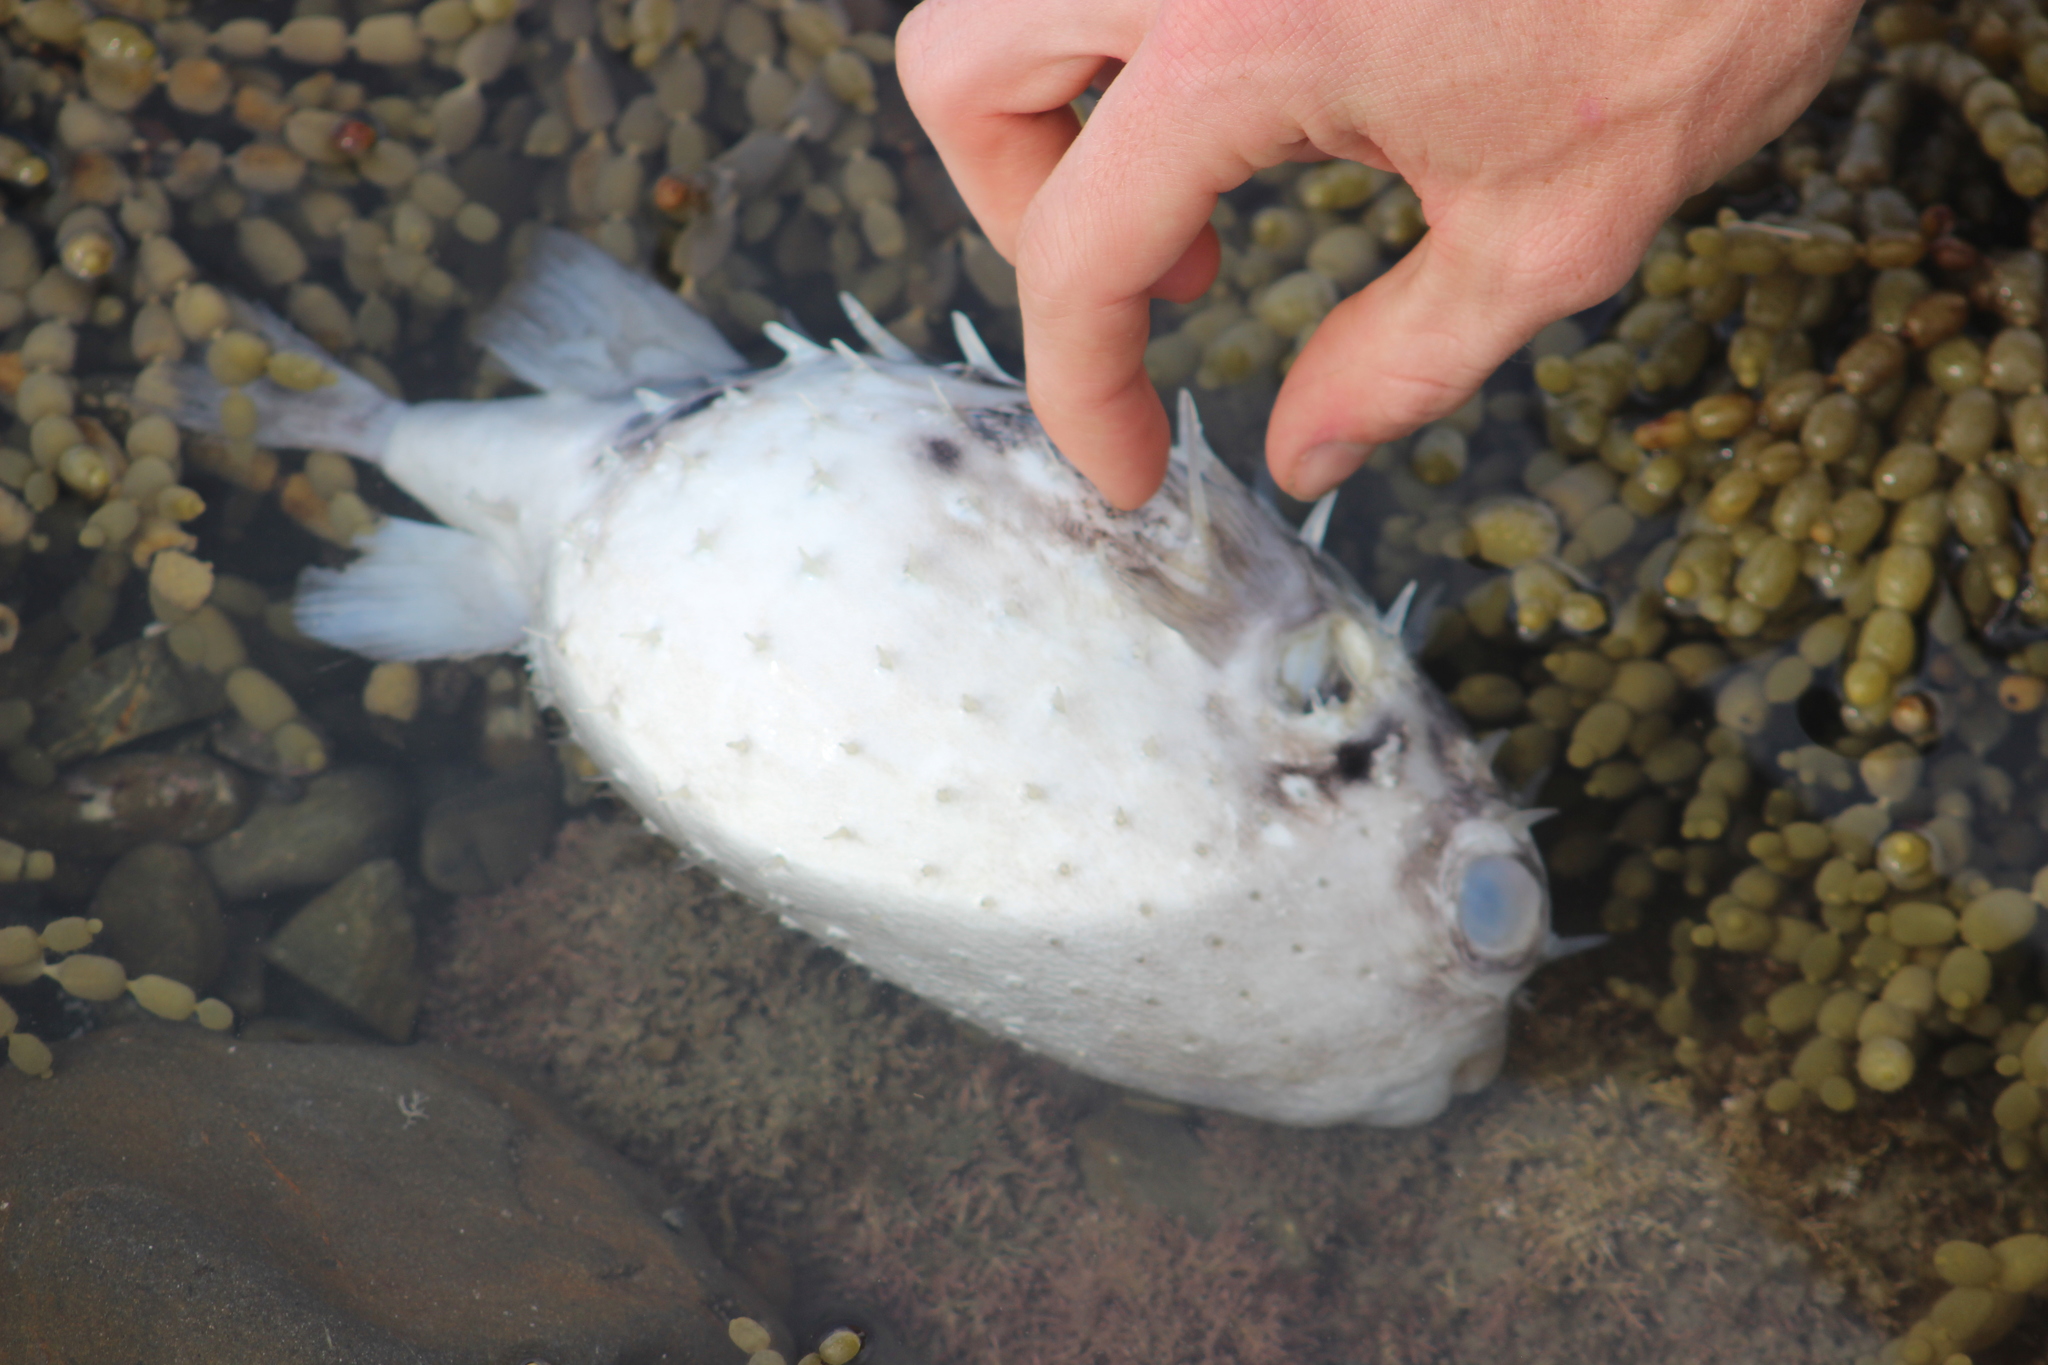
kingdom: Animalia
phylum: Chordata
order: Tetraodontiformes
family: Diodontidae
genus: Allomycterus
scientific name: Allomycterus pilatus
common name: No common name
